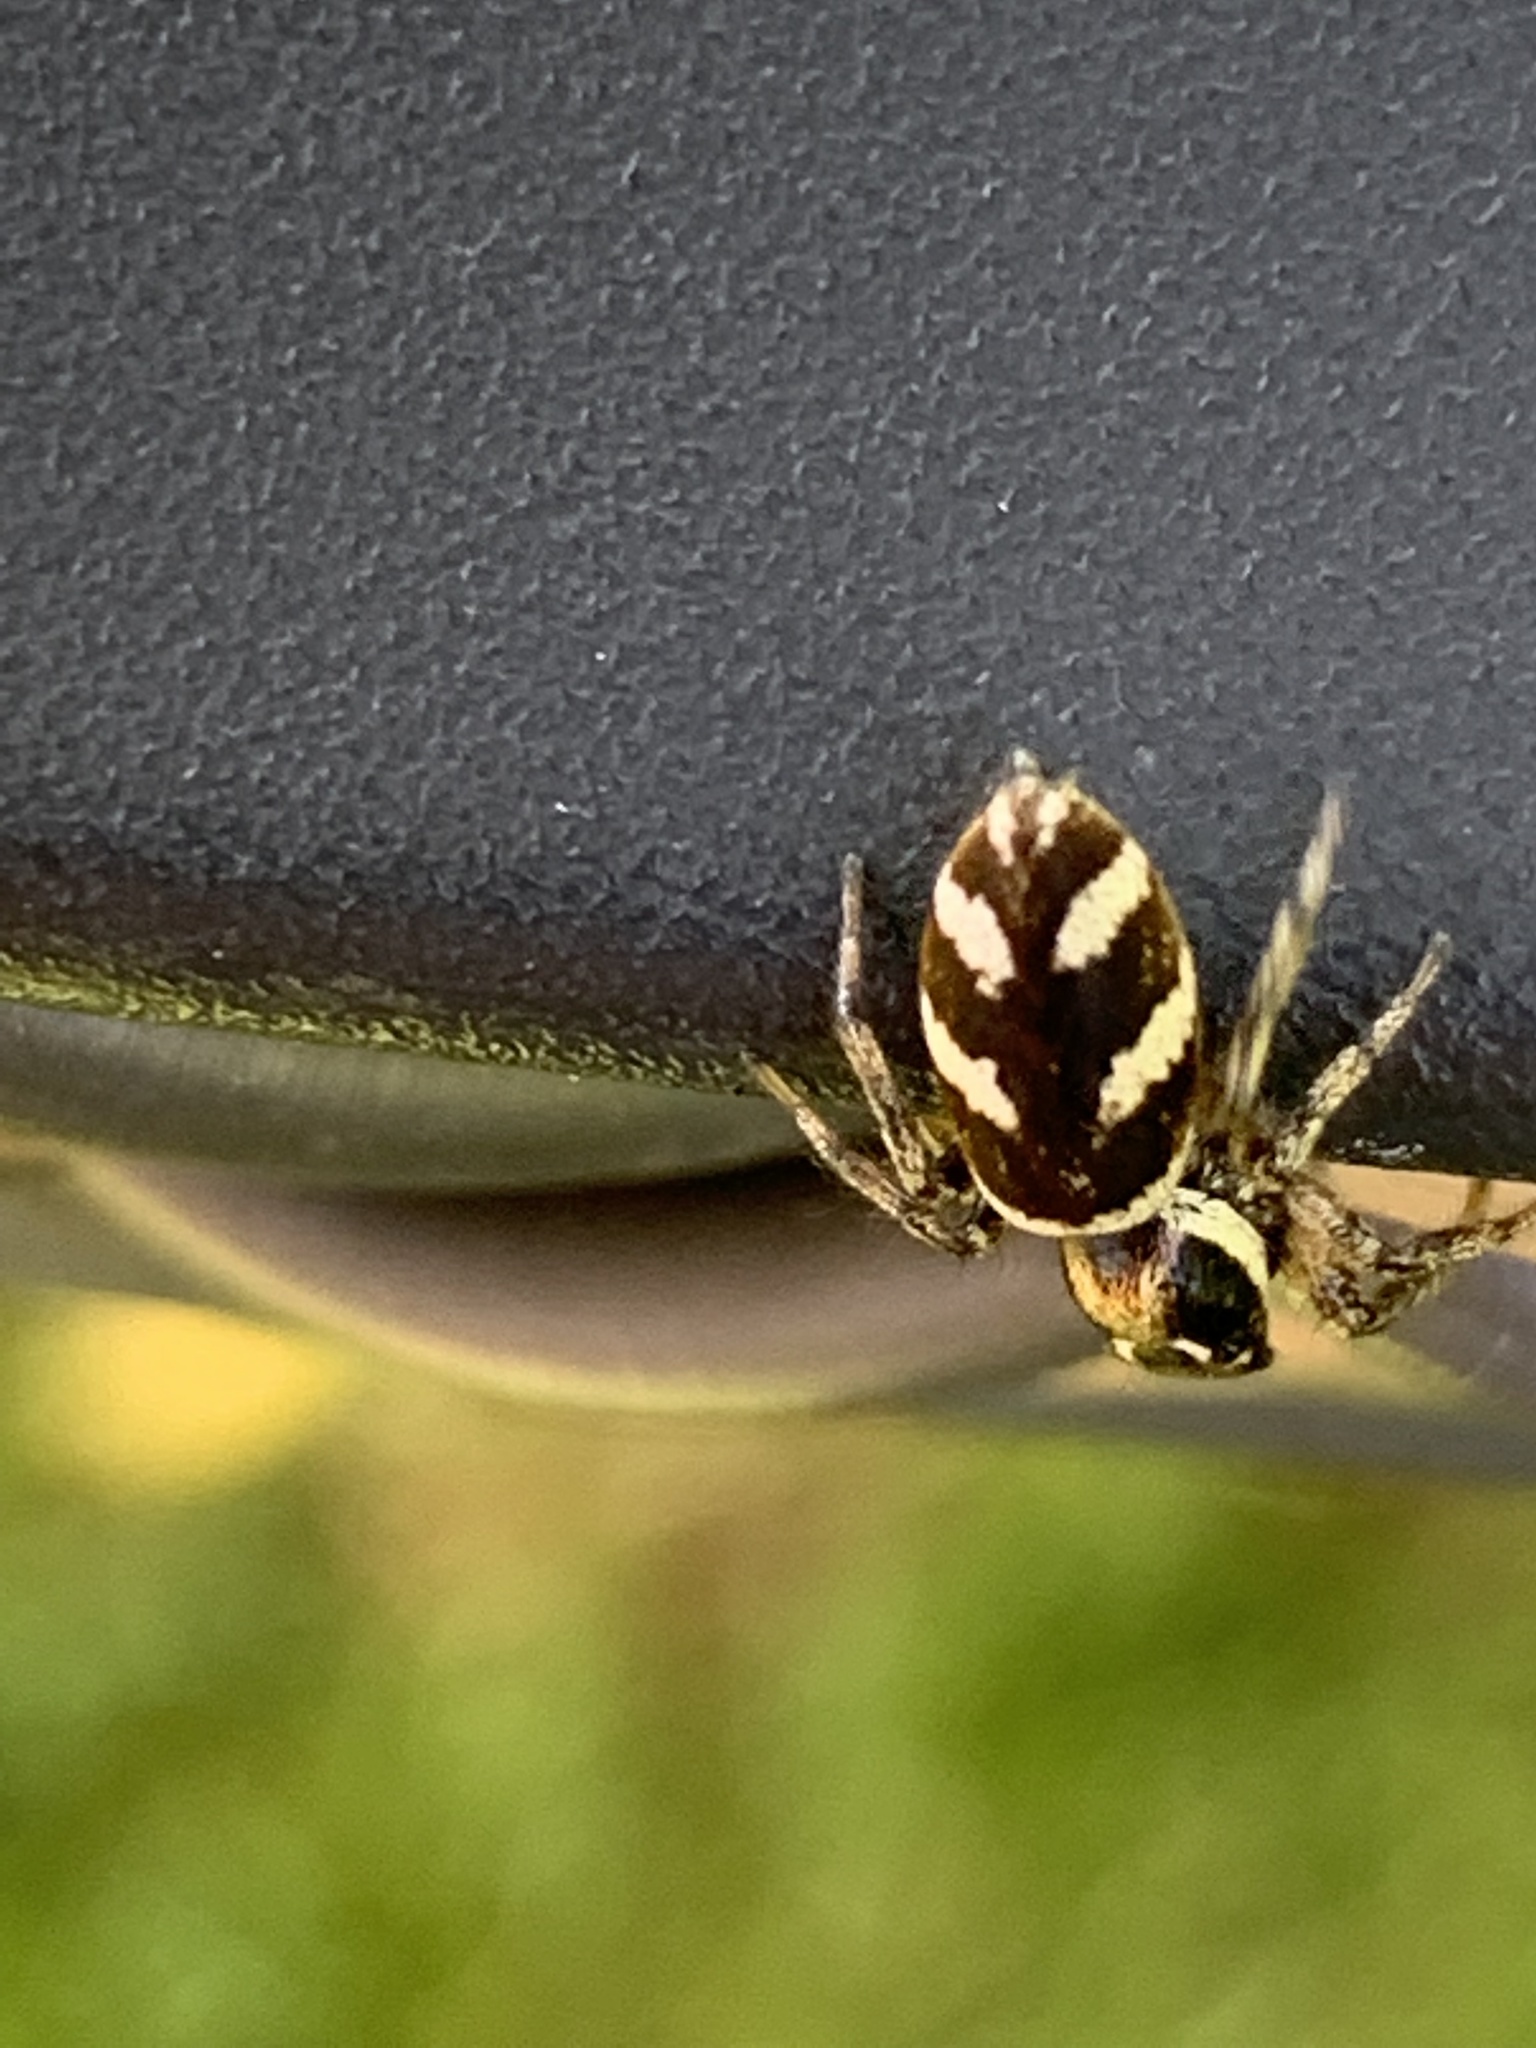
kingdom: Animalia
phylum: Arthropoda
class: Arachnida
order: Araneae
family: Salticidae
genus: Salticus
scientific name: Salticus scenicus
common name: Zebra jumper
